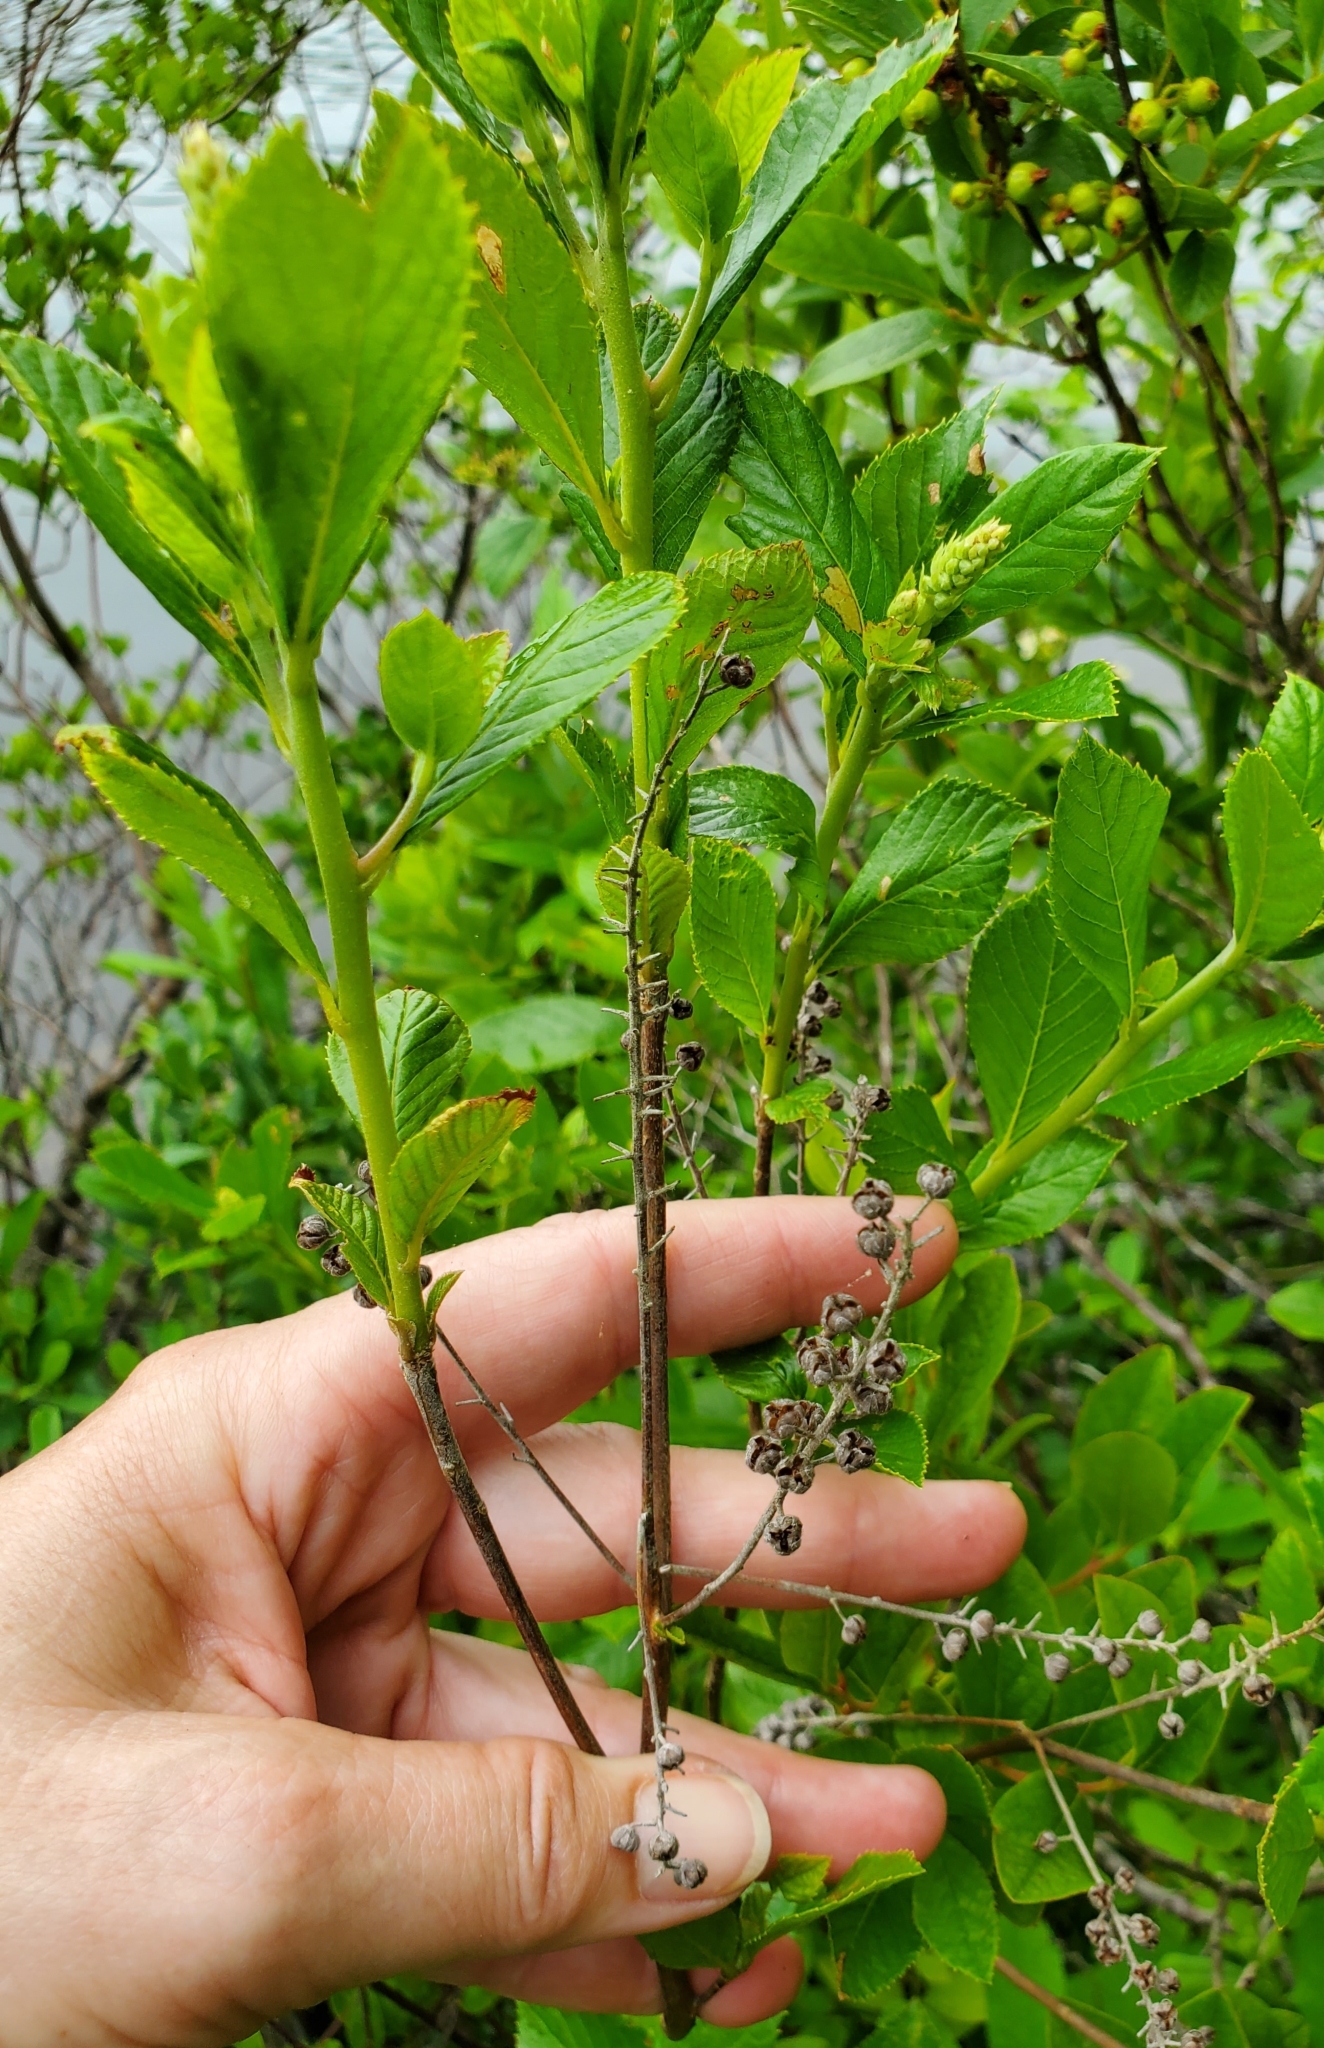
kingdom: Plantae
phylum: Tracheophyta
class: Magnoliopsida
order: Ericales
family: Clethraceae
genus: Clethra
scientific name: Clethra alnifolia
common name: Sweet pepperbush
